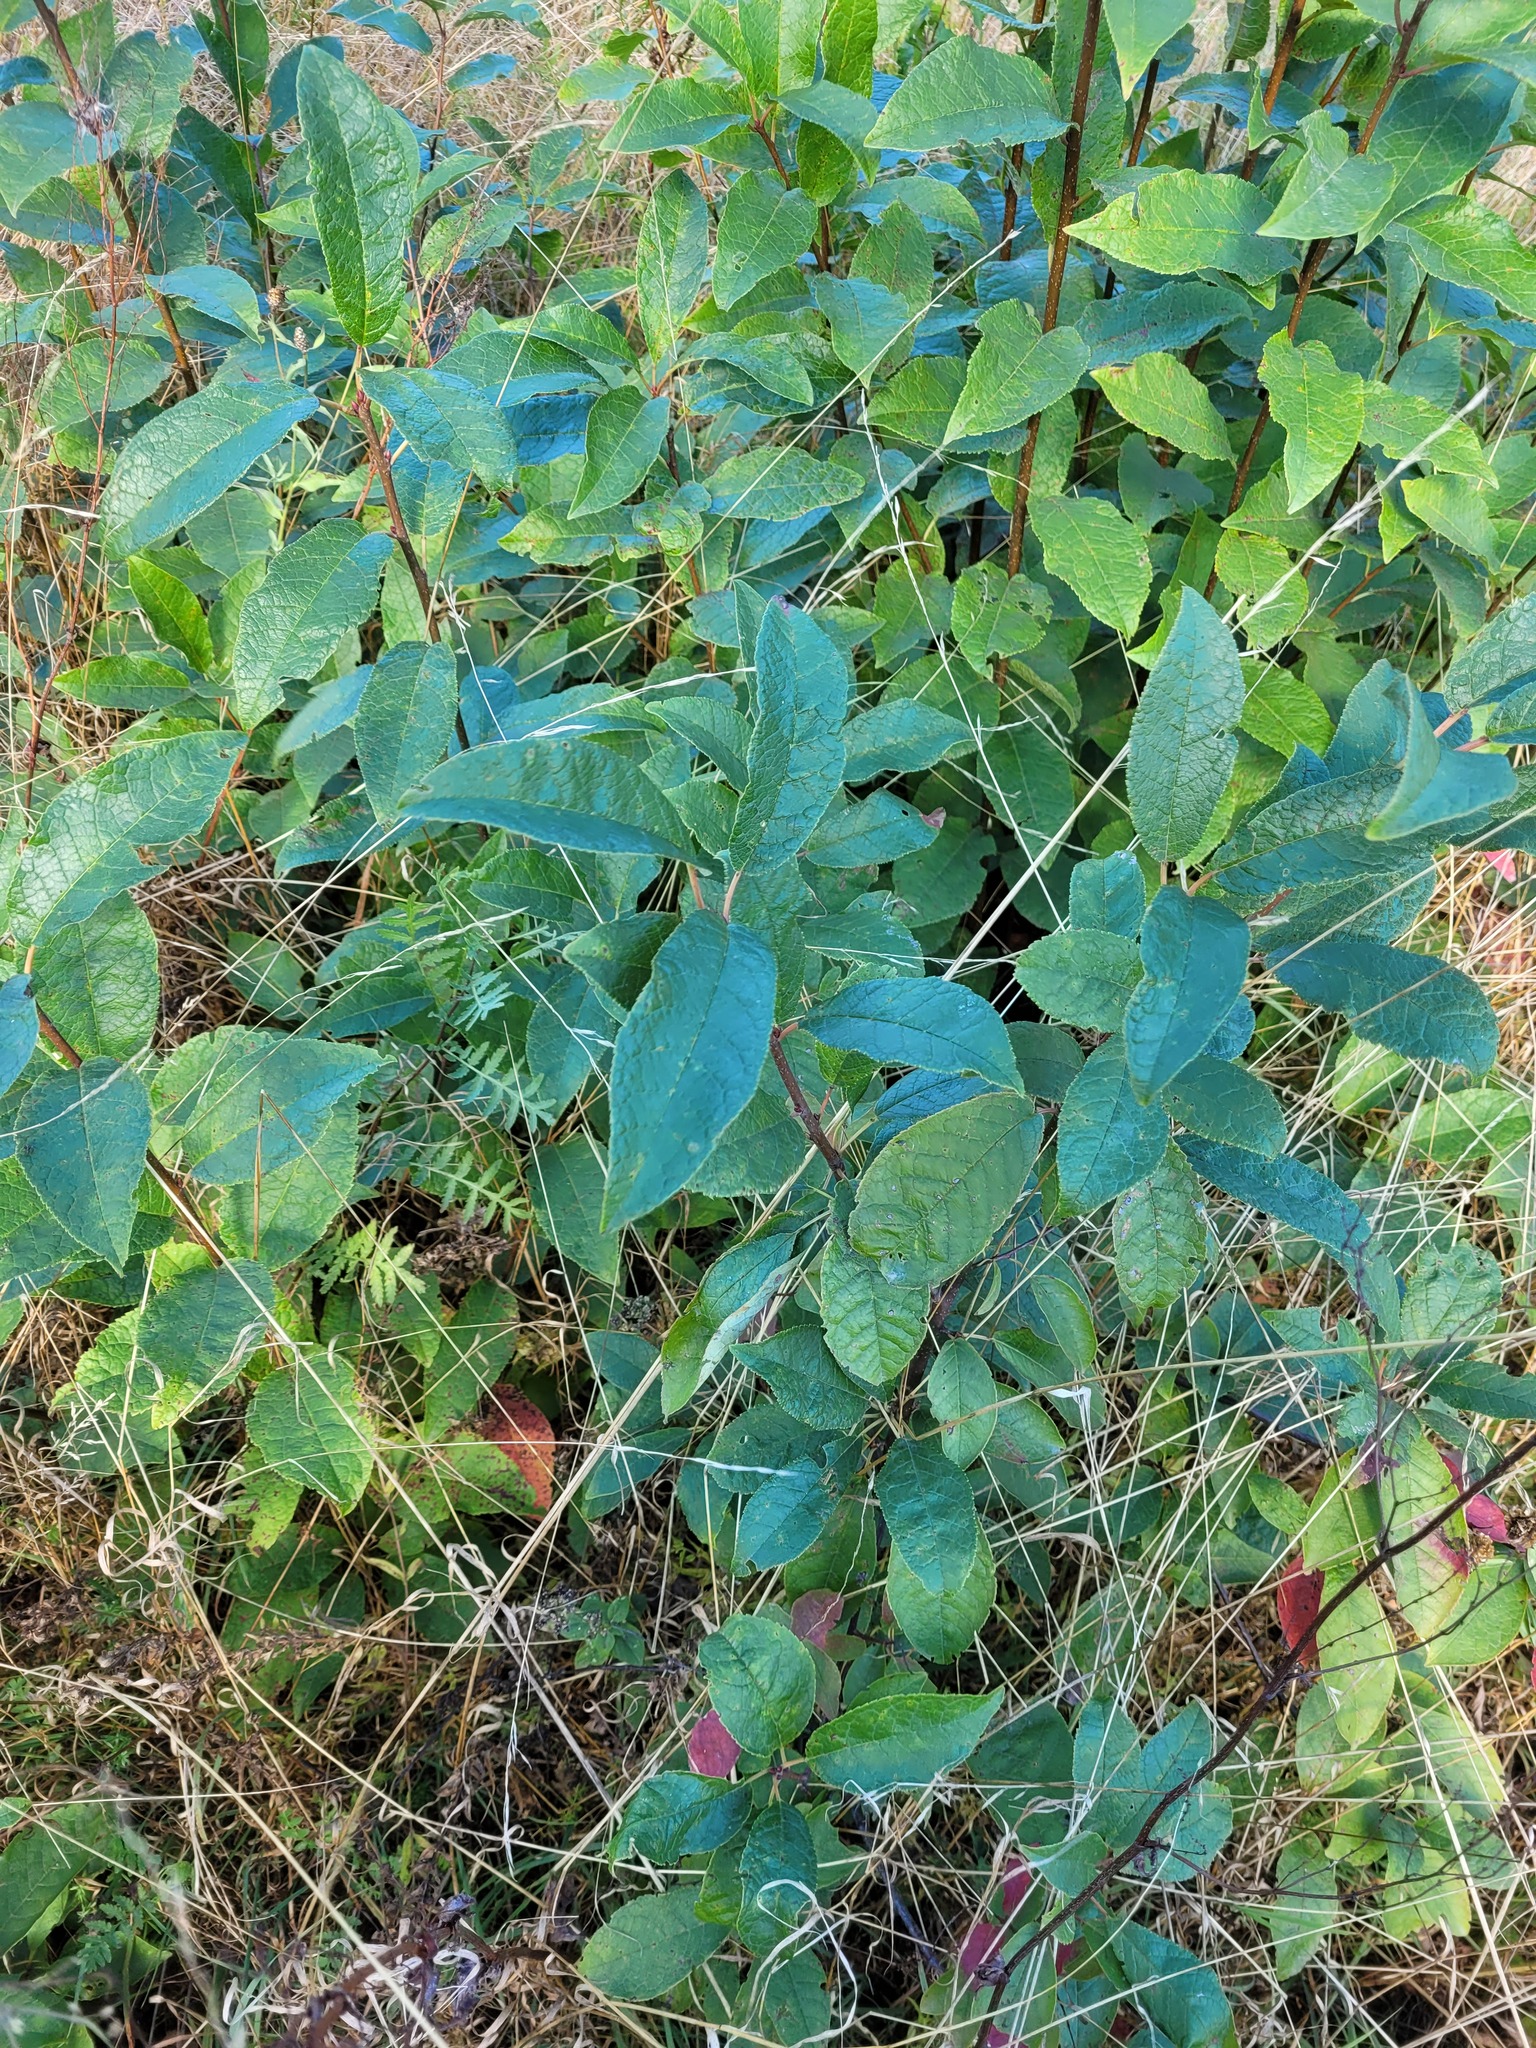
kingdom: Plantae
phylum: Tracheophyta
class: Magnoliopsida
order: Rosales
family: Rosaceae
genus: Prunus
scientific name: Prunus padus
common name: Bird cherry
